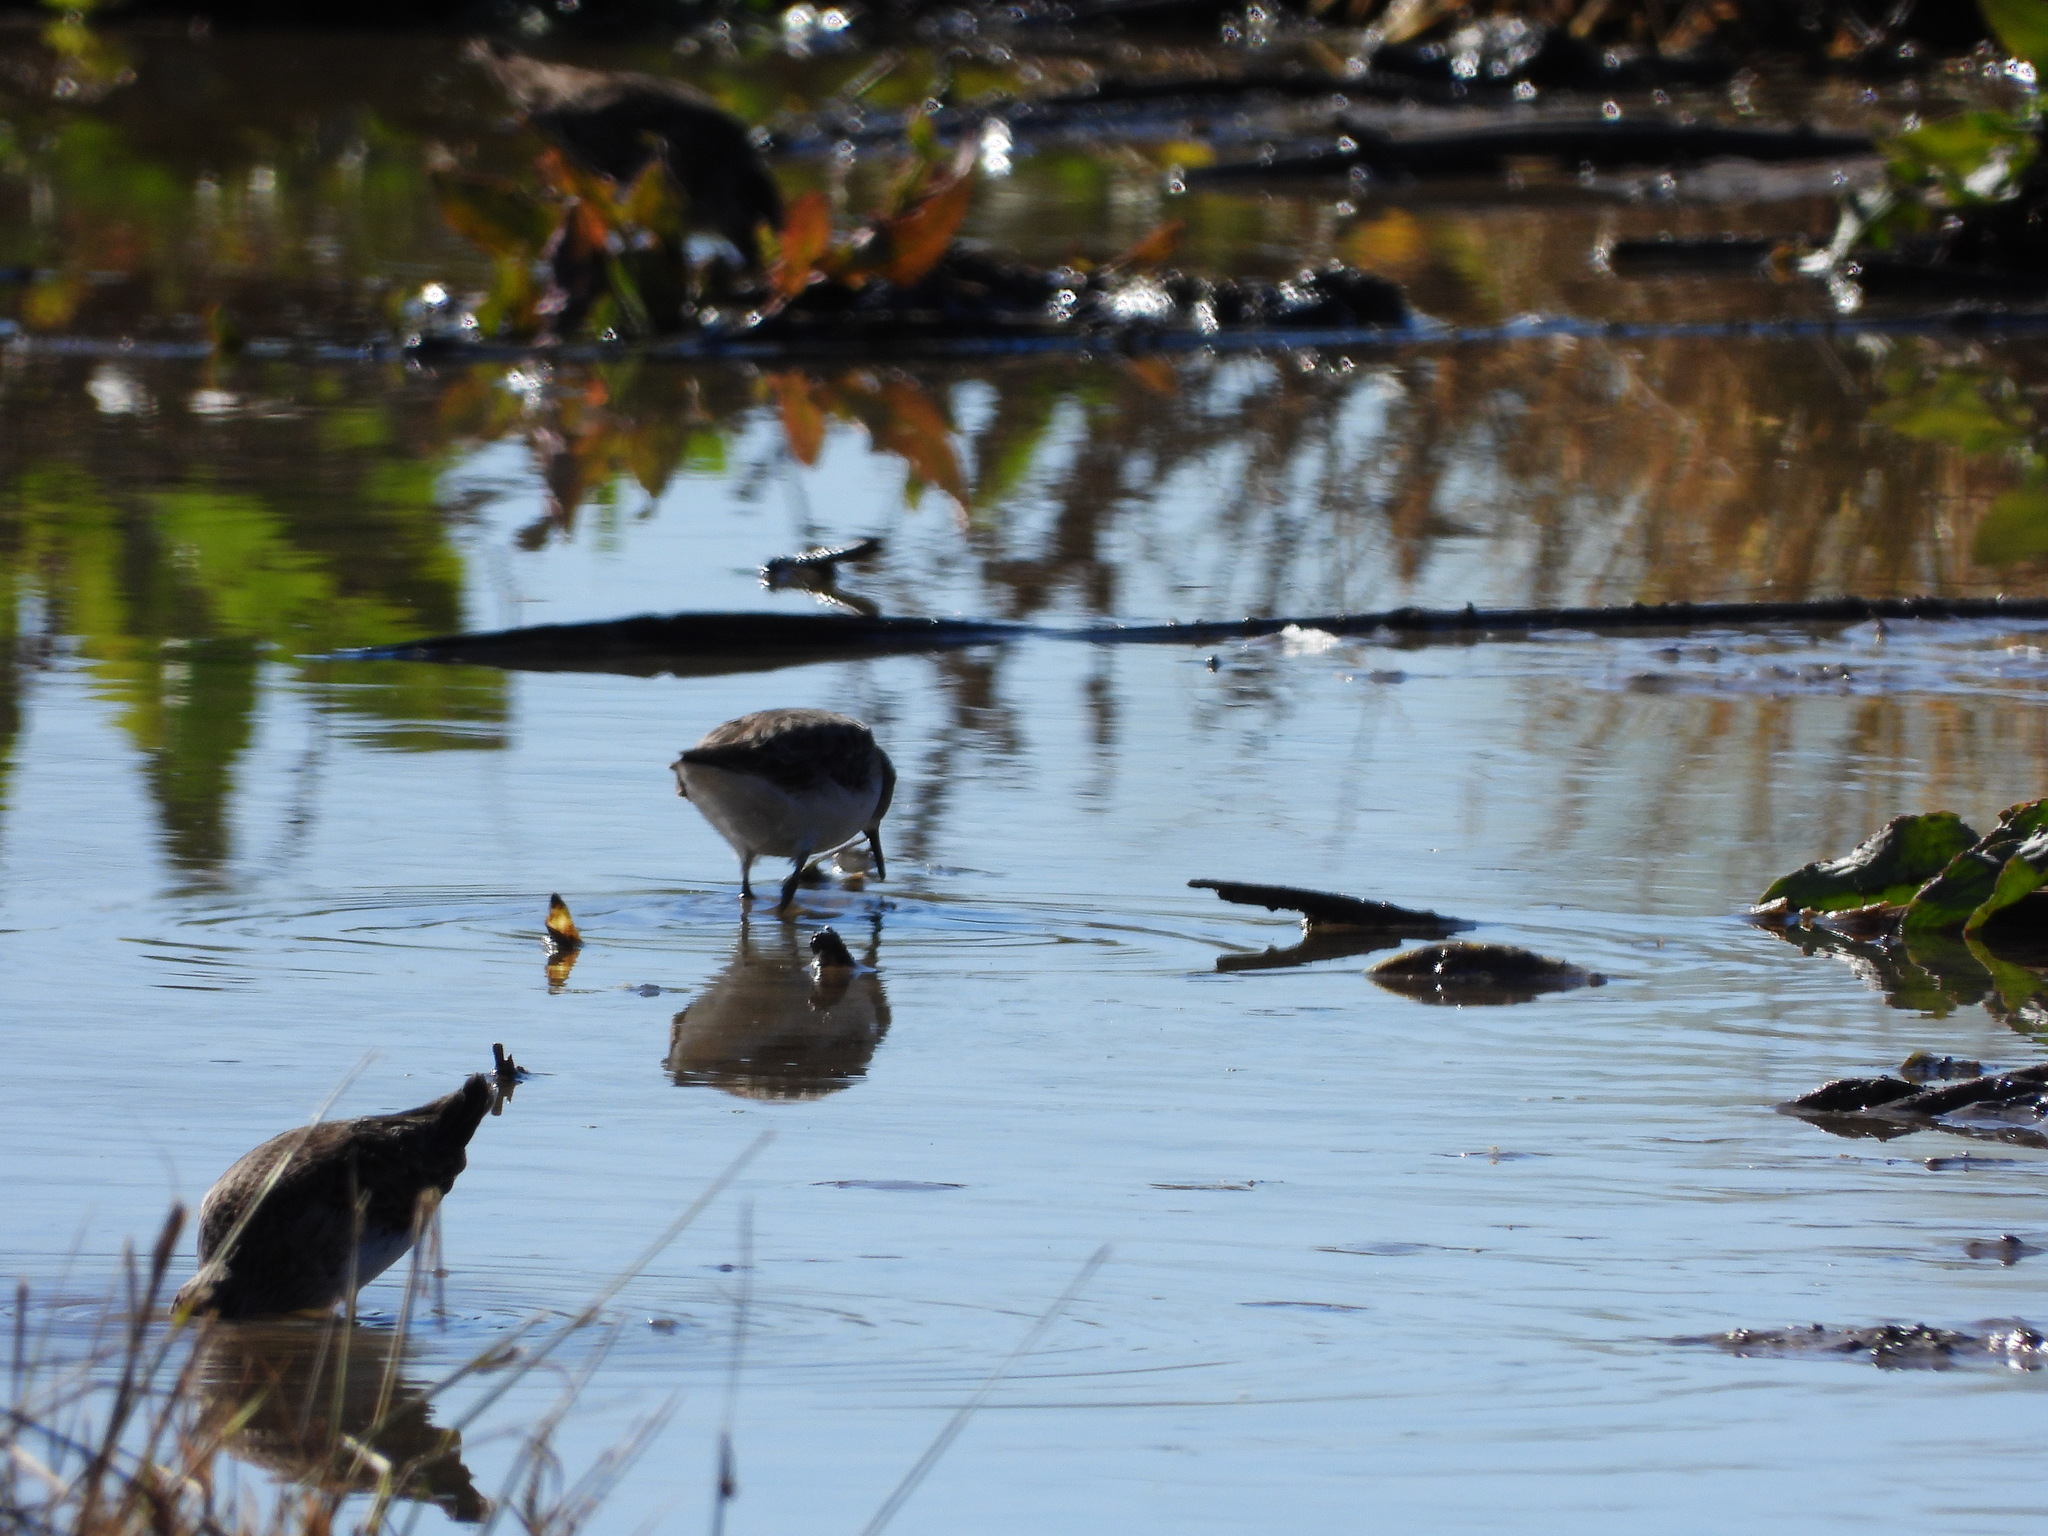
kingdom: Animalia
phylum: Chordata
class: Aves
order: Charadriiformes
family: Scolopacidae
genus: Calidris
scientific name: Calidris minutilla
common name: Least sandpiper
